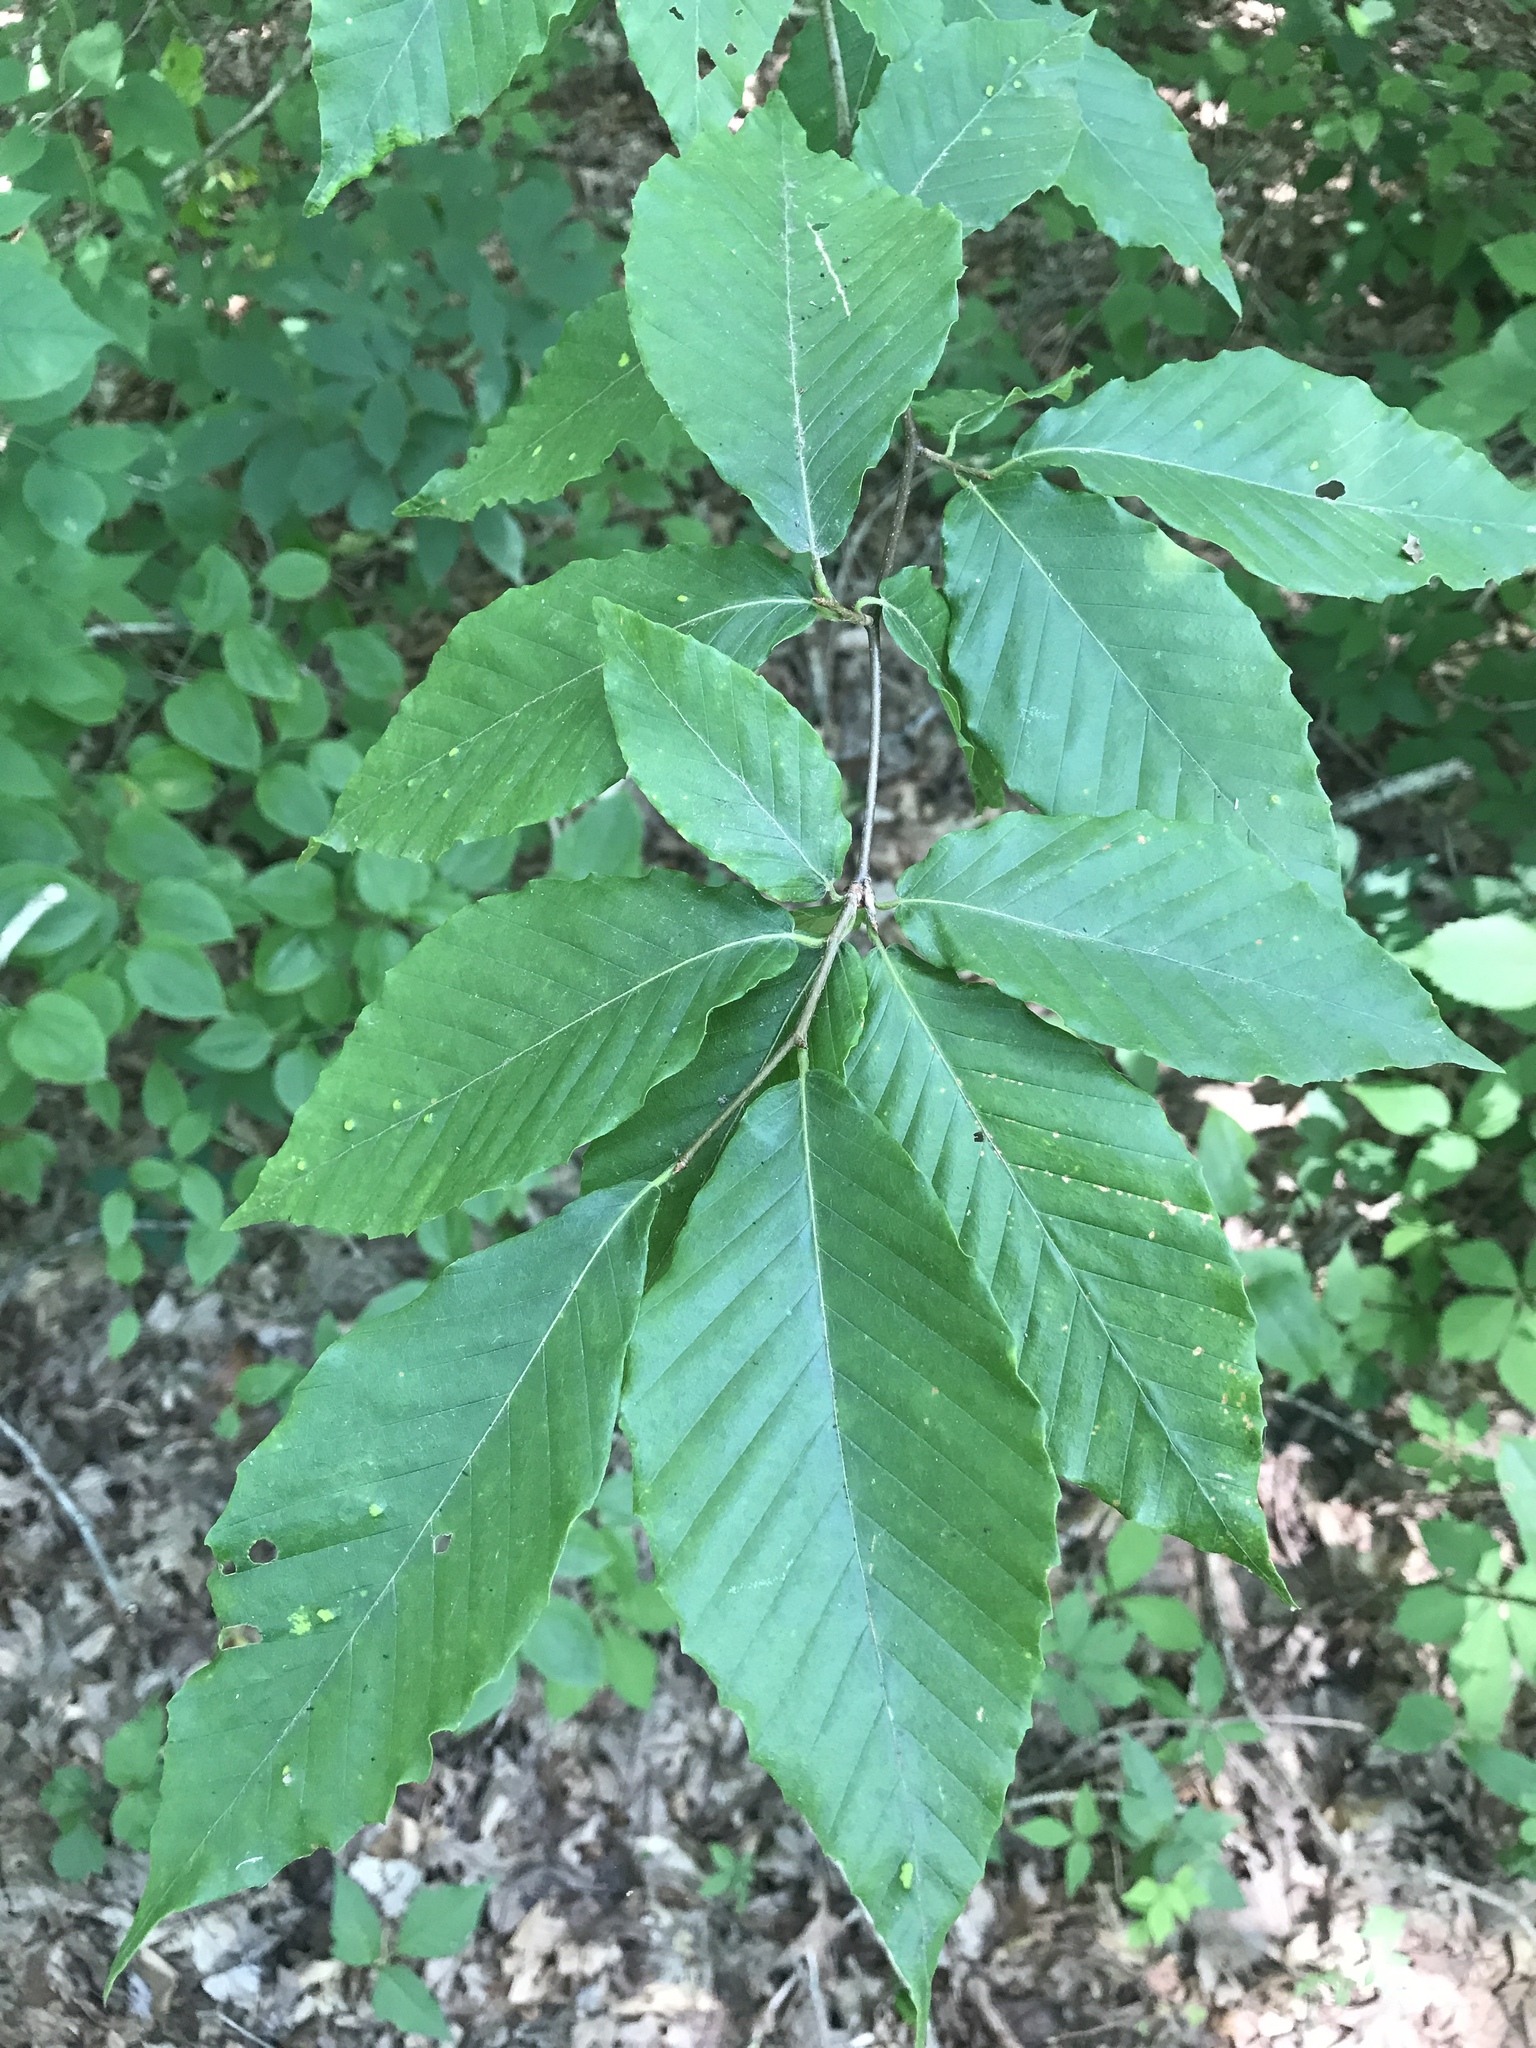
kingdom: Plantae
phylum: Tracheophyta
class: Magnoliopsida
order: Fagales
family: Fagaceae
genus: Fagus
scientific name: Fagus grandifolia
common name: American beech
